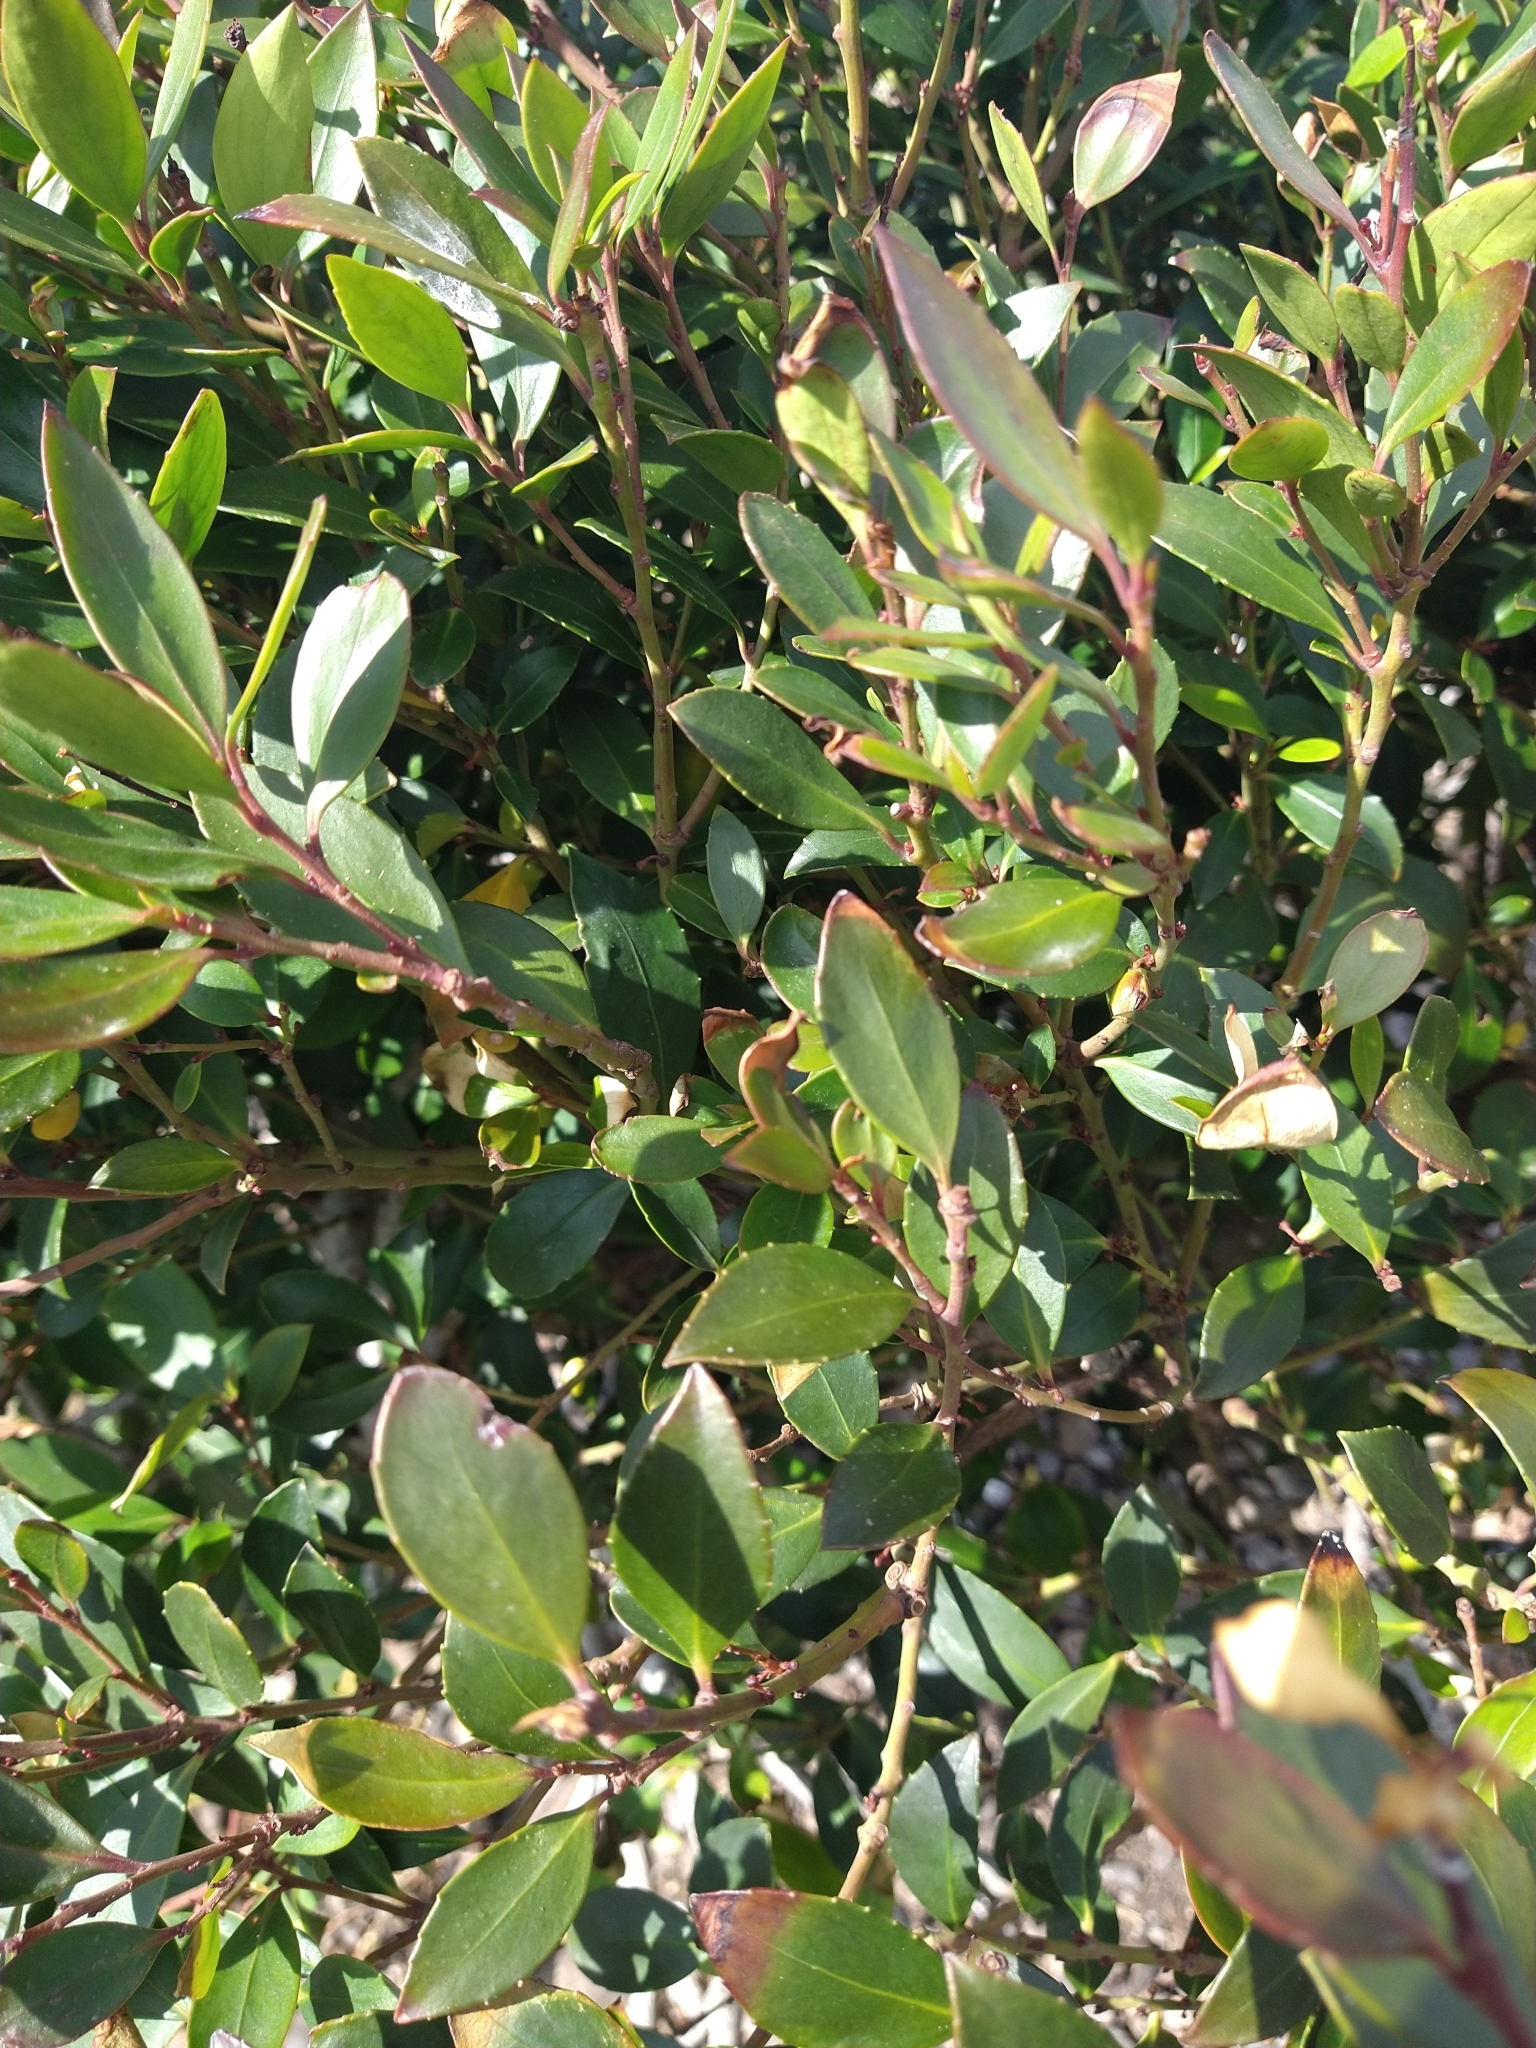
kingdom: Plantae
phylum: Tracheophyta
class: Magnoliopsida
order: Celastrales
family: Celastraceae
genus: Maytenus
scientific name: Maytenus magellanica
